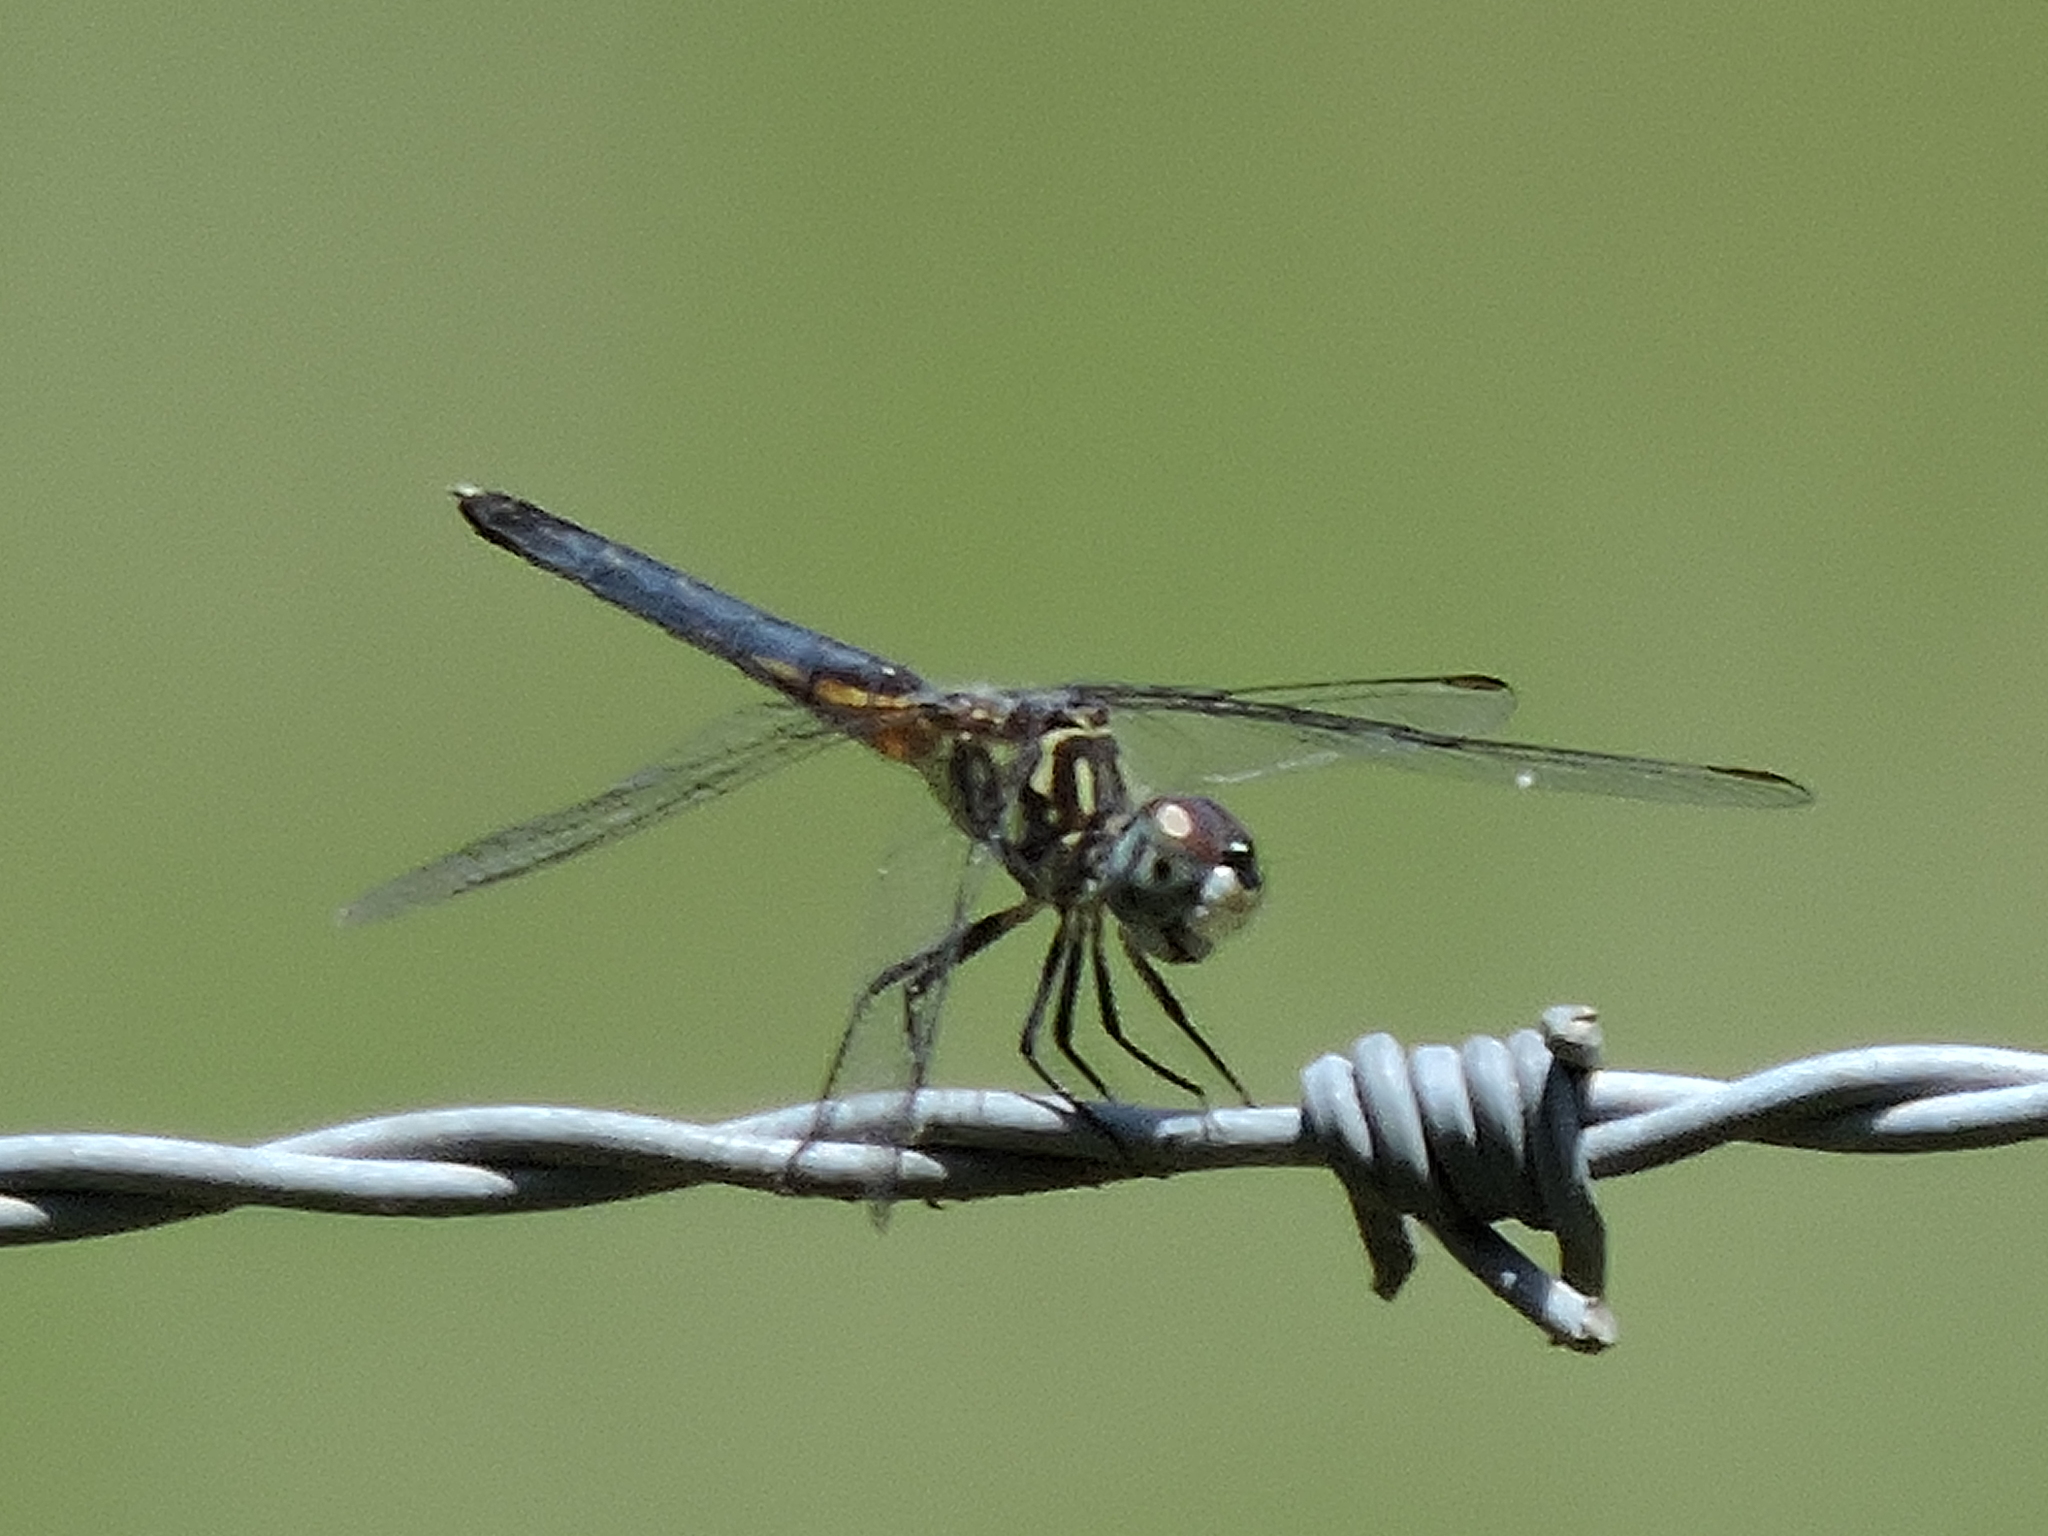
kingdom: Animalia
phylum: Arthropoda
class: Insecta
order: Odonata
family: Libellulidae
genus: Pachydiplax
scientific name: Pachydiplax longipennis
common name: Blue dasher
